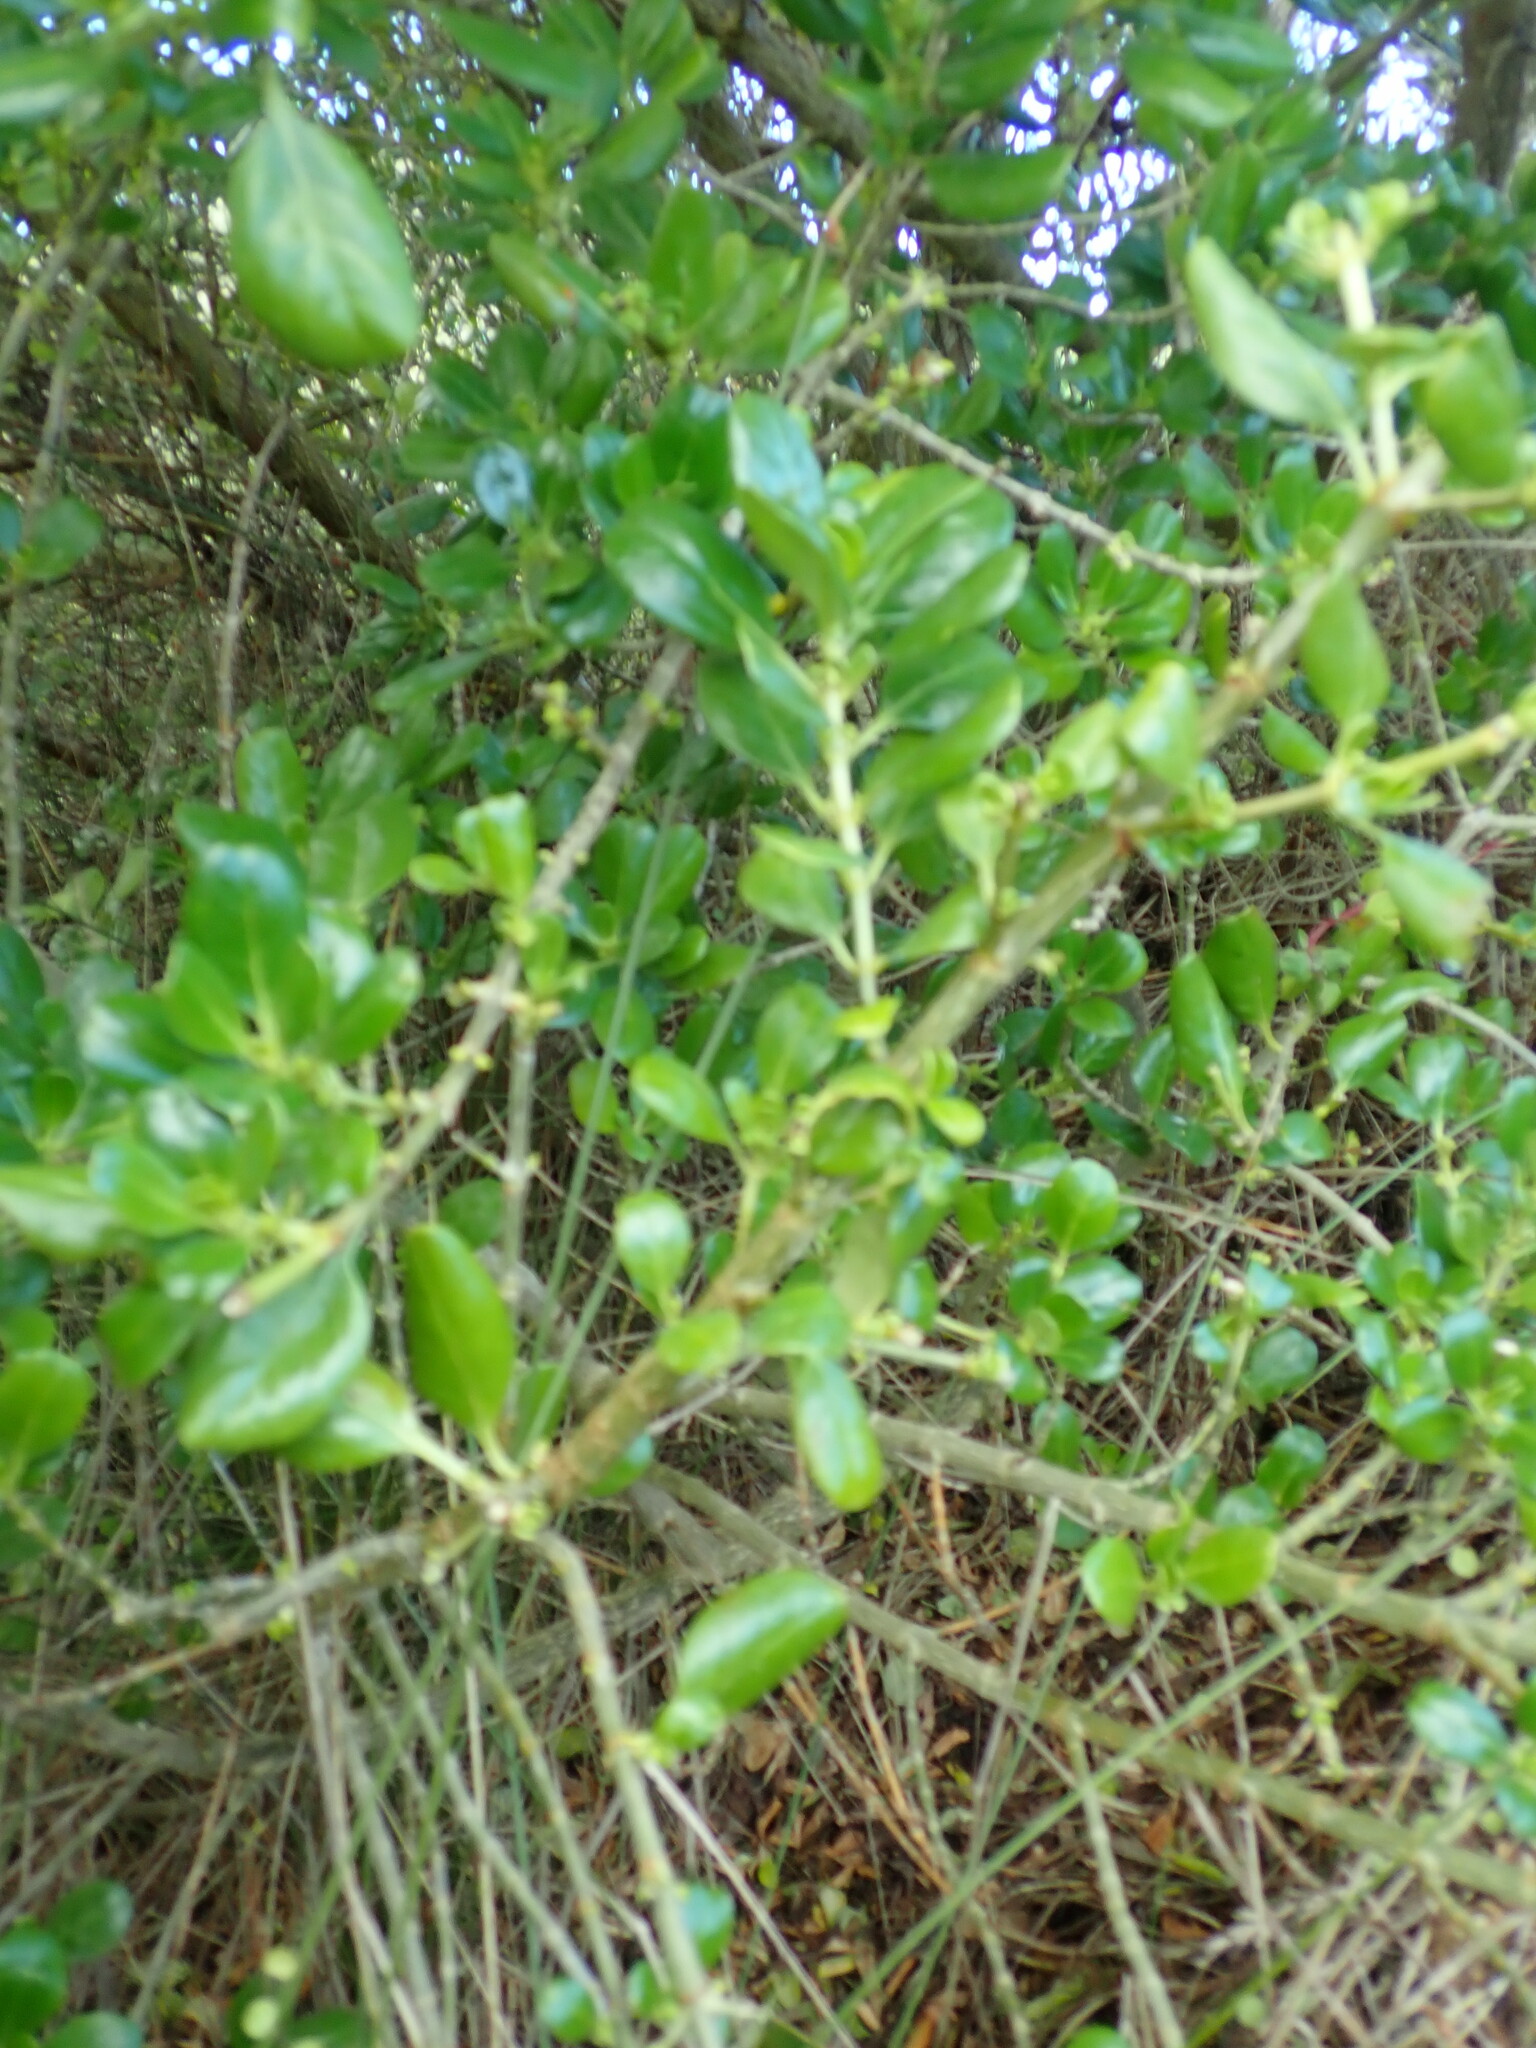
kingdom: Plantae
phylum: Tracheophyta
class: Magnoliopsida
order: Gentianales
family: Rubiaceae
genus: Coprosma
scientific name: Coprosma repens
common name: Tree bedstraw
